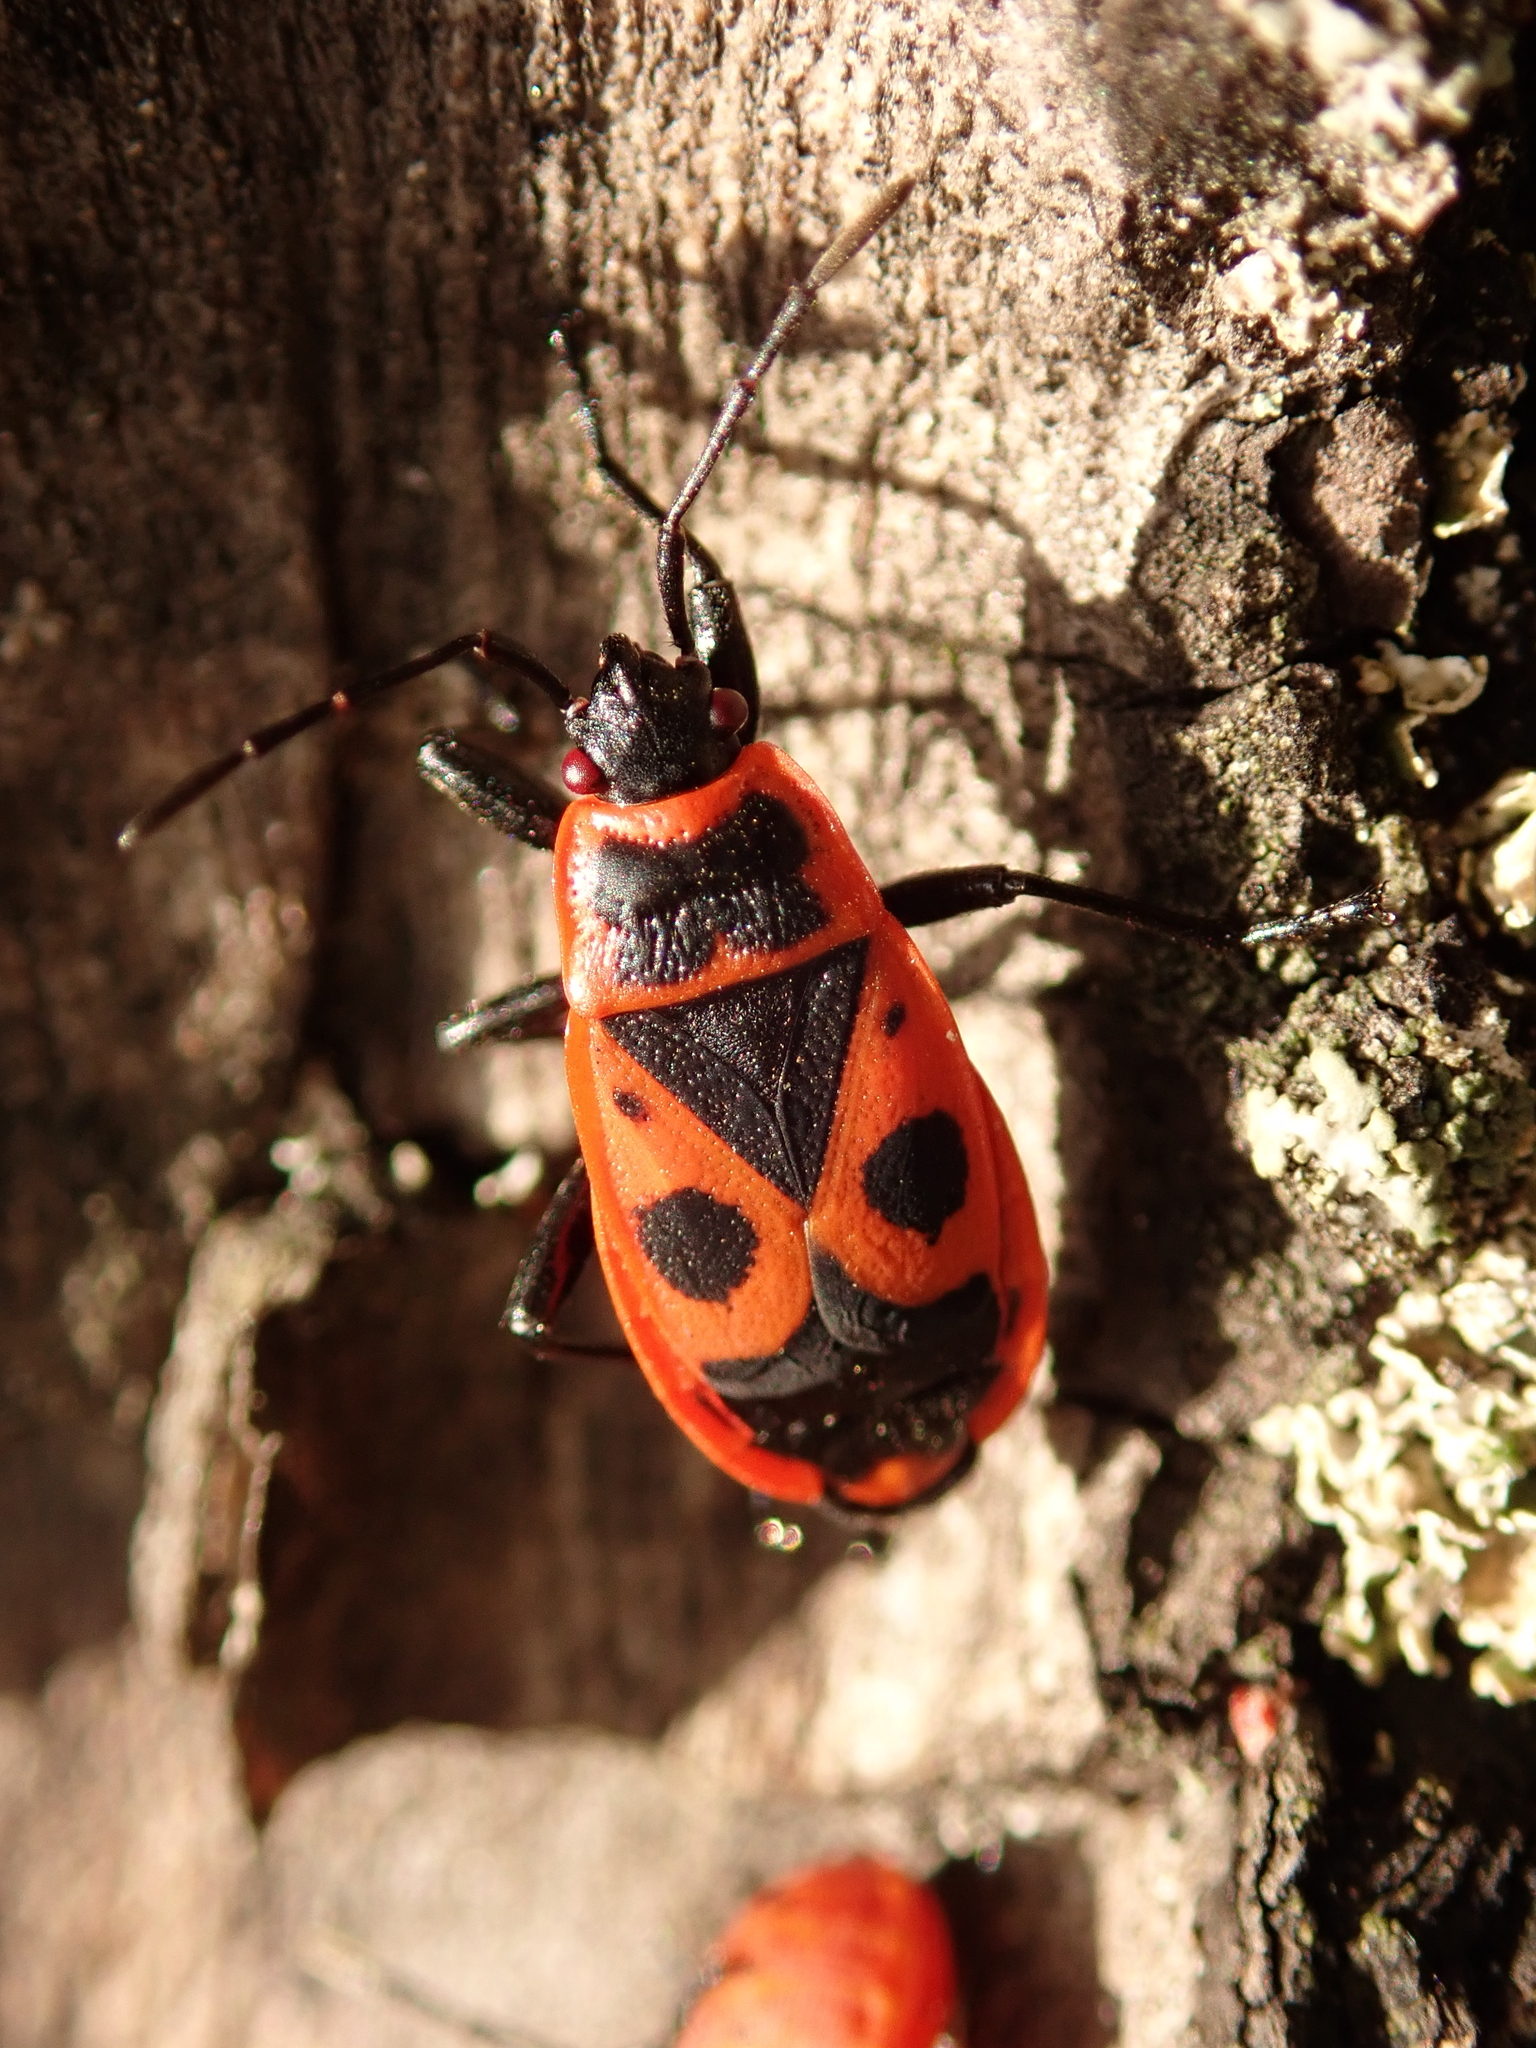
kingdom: Animalia
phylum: Arthropoda
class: Insecta
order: Hemiptera
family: Pyrrhocoridae
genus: Pyrrhocoris
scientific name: Pyrrhocoris apterus
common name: Firebug
